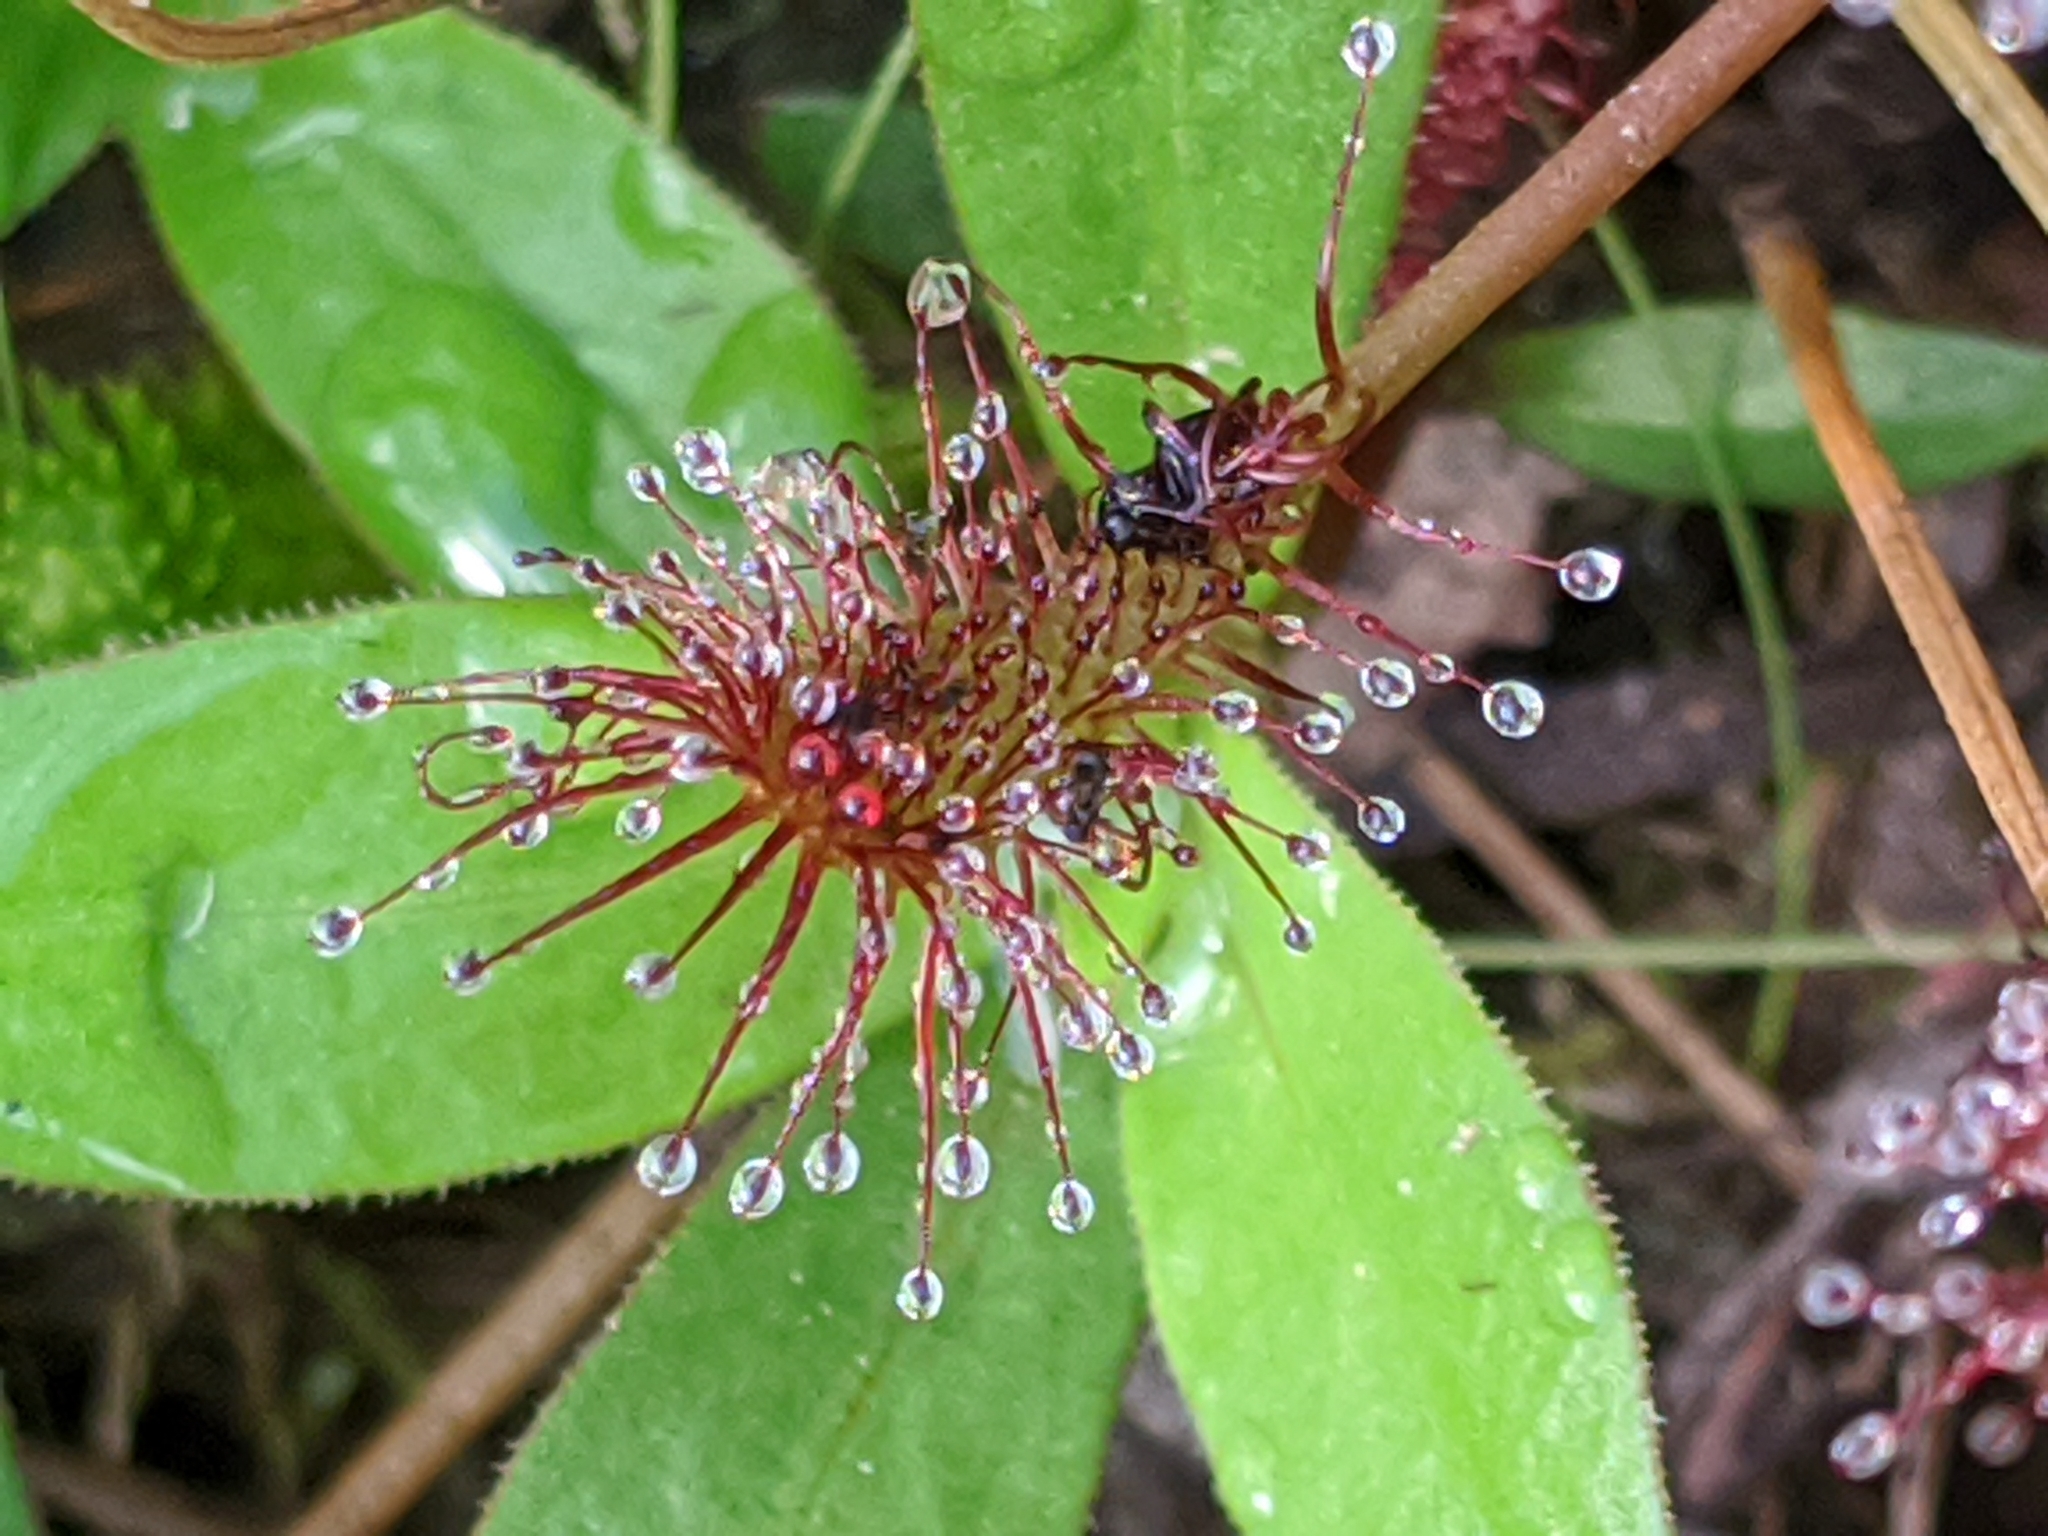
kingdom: Plantae
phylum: Tracheophyta
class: Magnoliopsida
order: Caryophyllales
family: Droseraceae
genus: Drosera
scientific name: Drosera intermedia
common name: Oblong-leaved sundew
